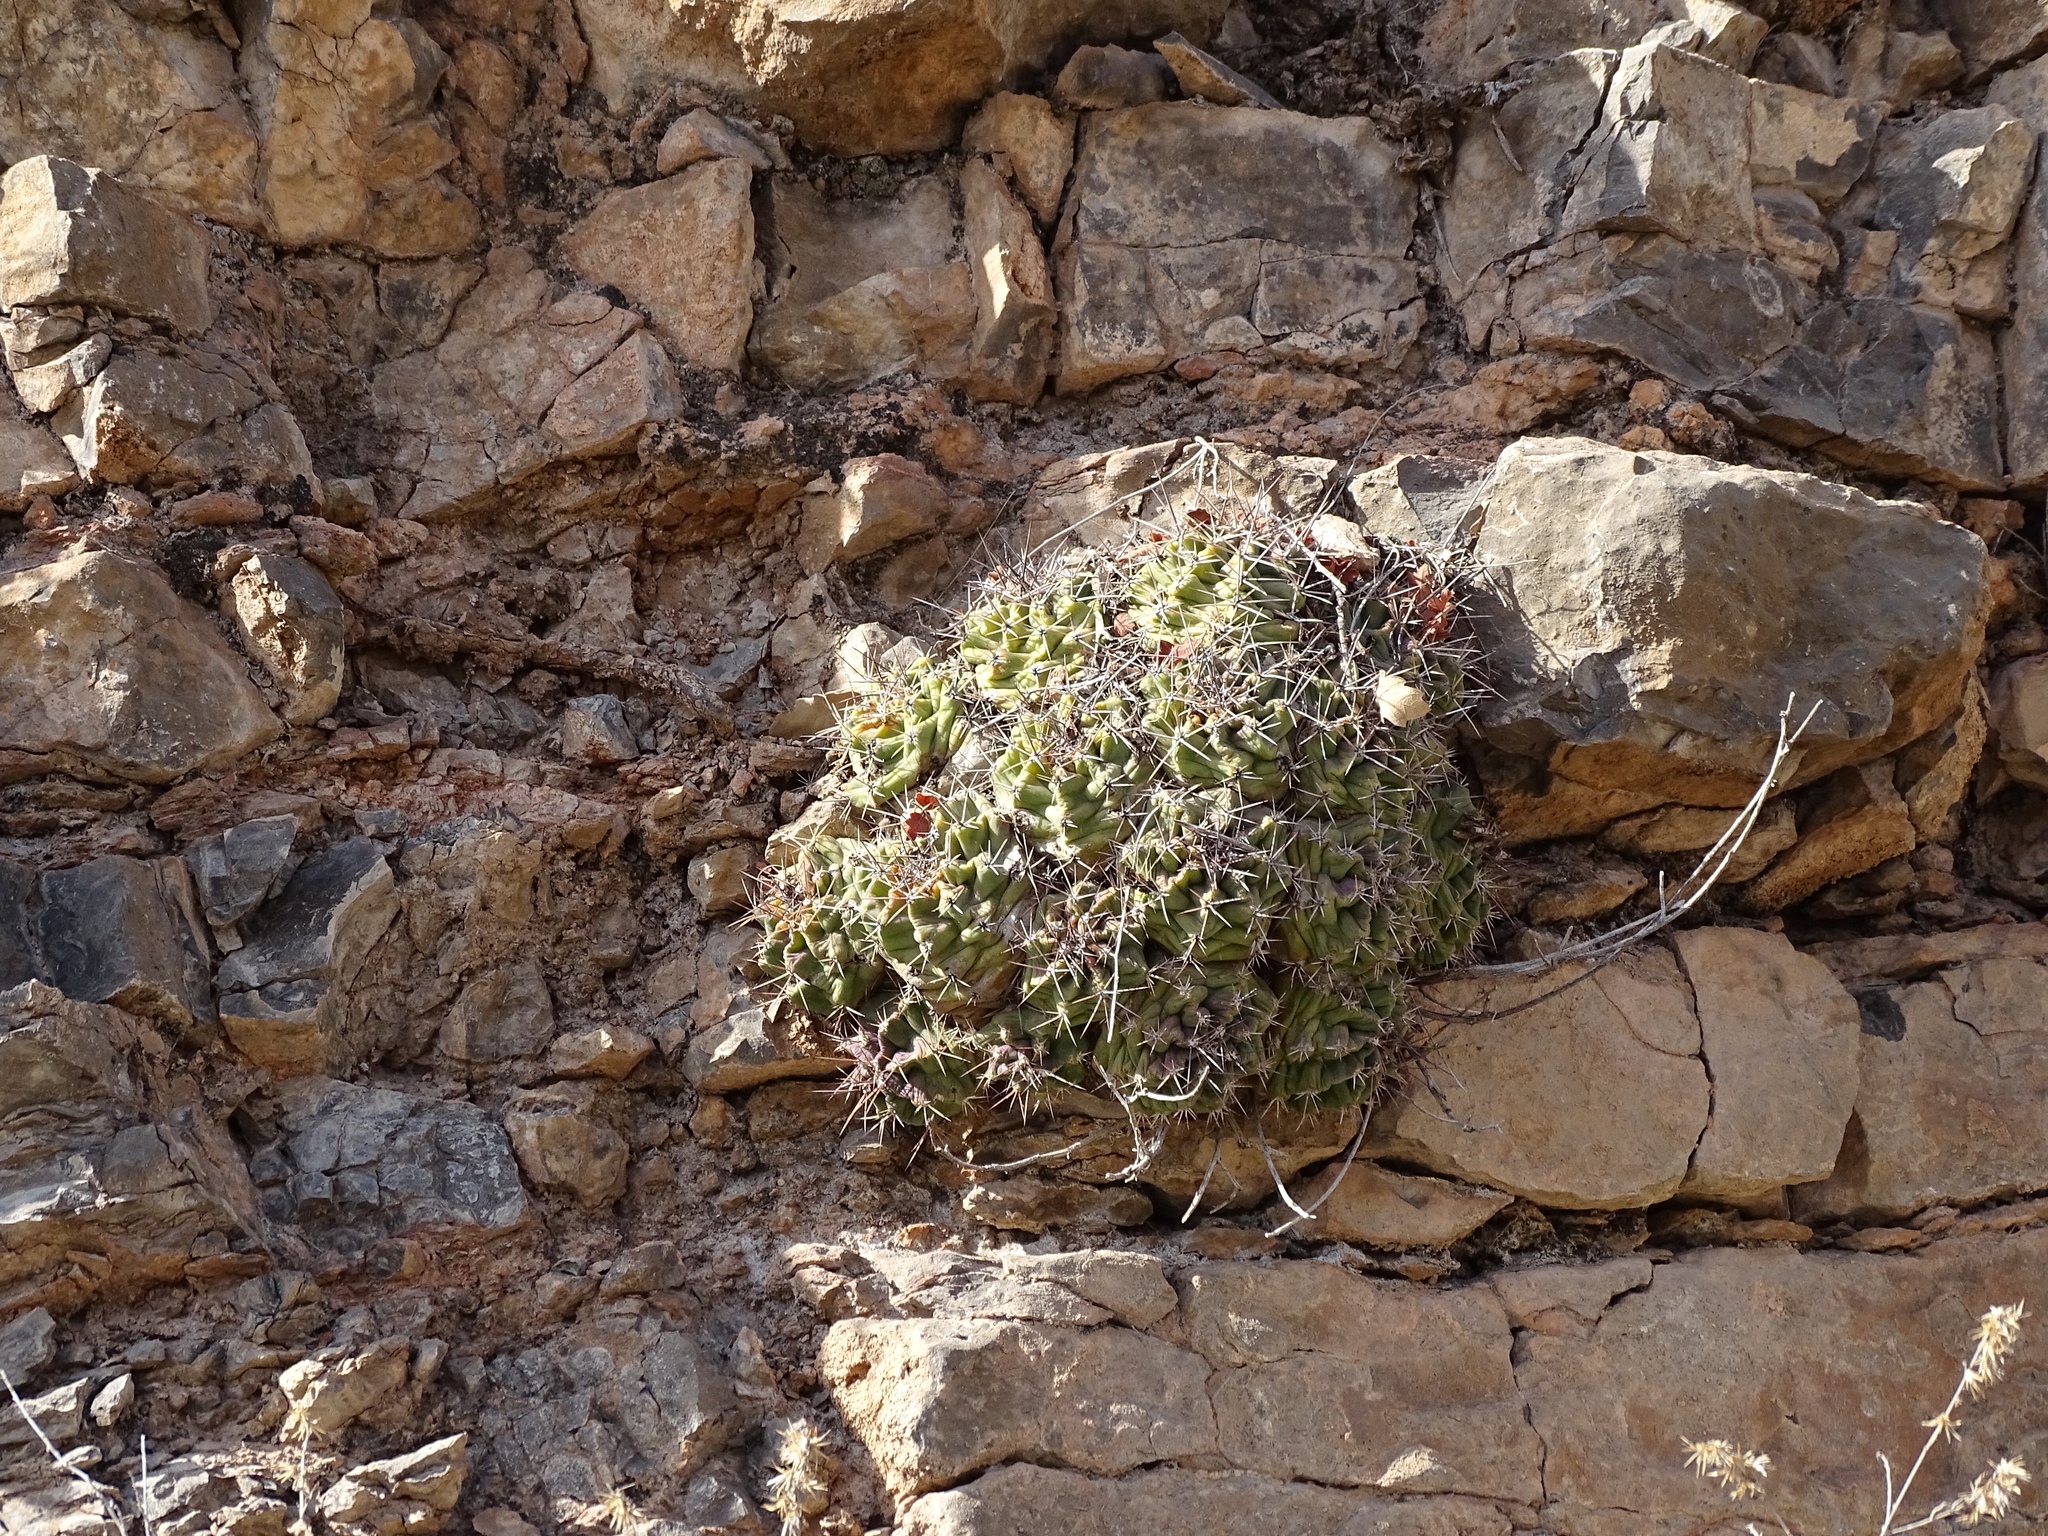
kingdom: Plantae
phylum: Tracheophyta
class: Magnoliopsida
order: Caryophyllales
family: Cactaceae
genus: Echinocereus
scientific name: Echinocereus coccineus
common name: Scarlet hedgehog cactus
